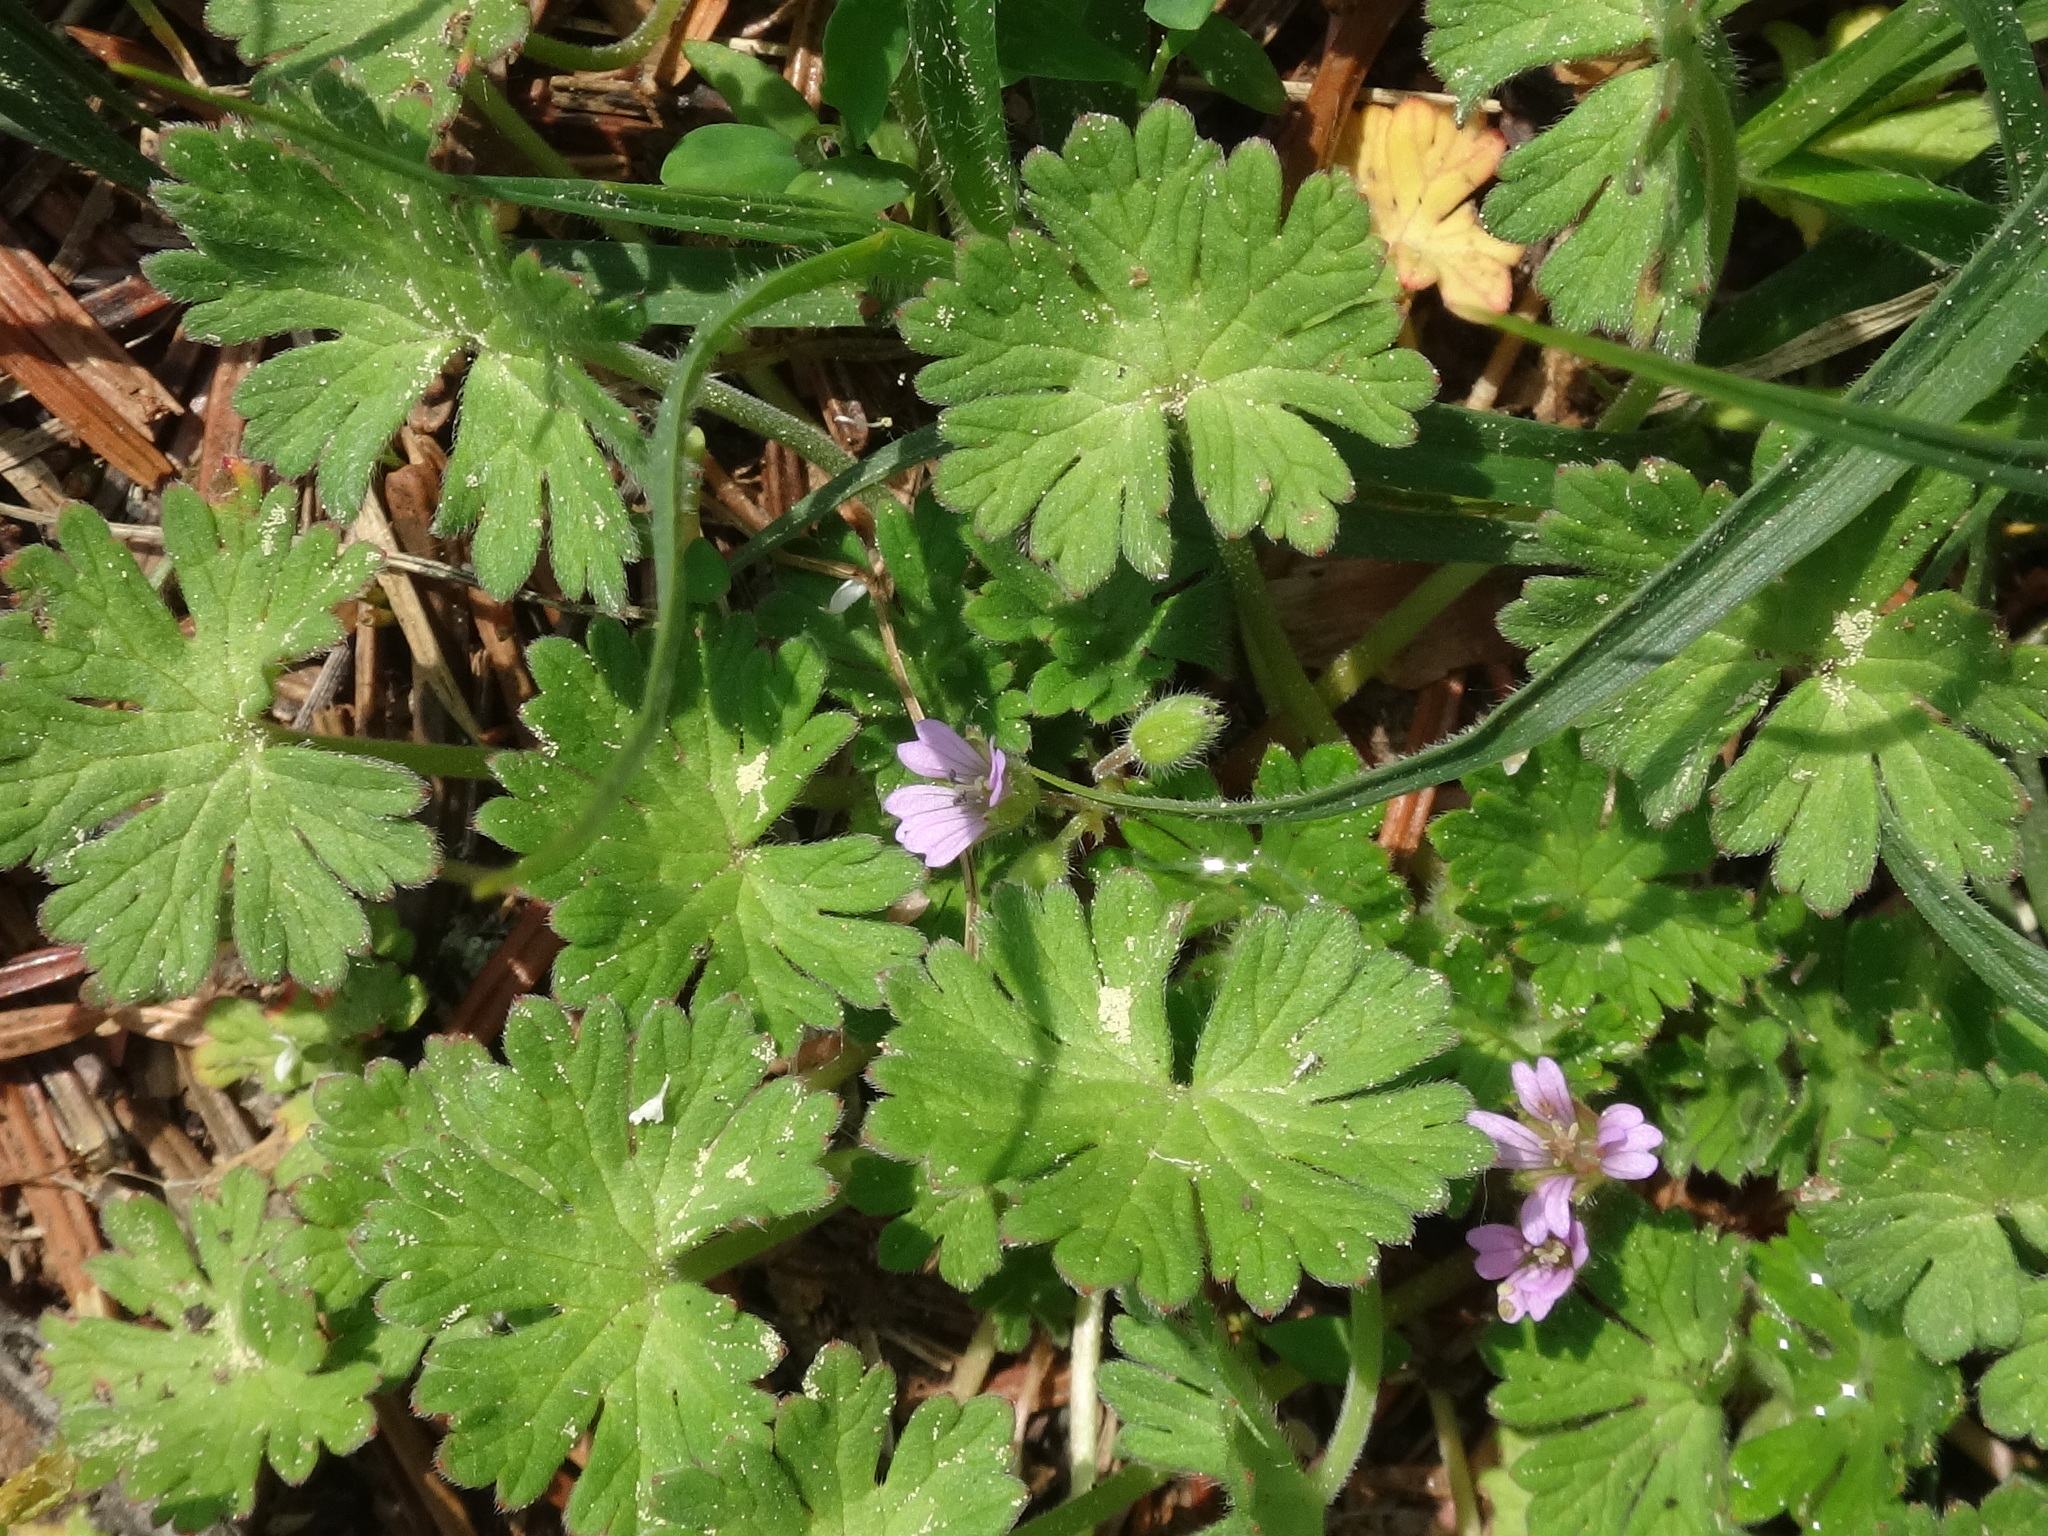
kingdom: Plantae
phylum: Tracheophyta
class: Magnoliopsida
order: Geraniales
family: Geraniaceae
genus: Geranium
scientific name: Geranium pusillum
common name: Small geranium
